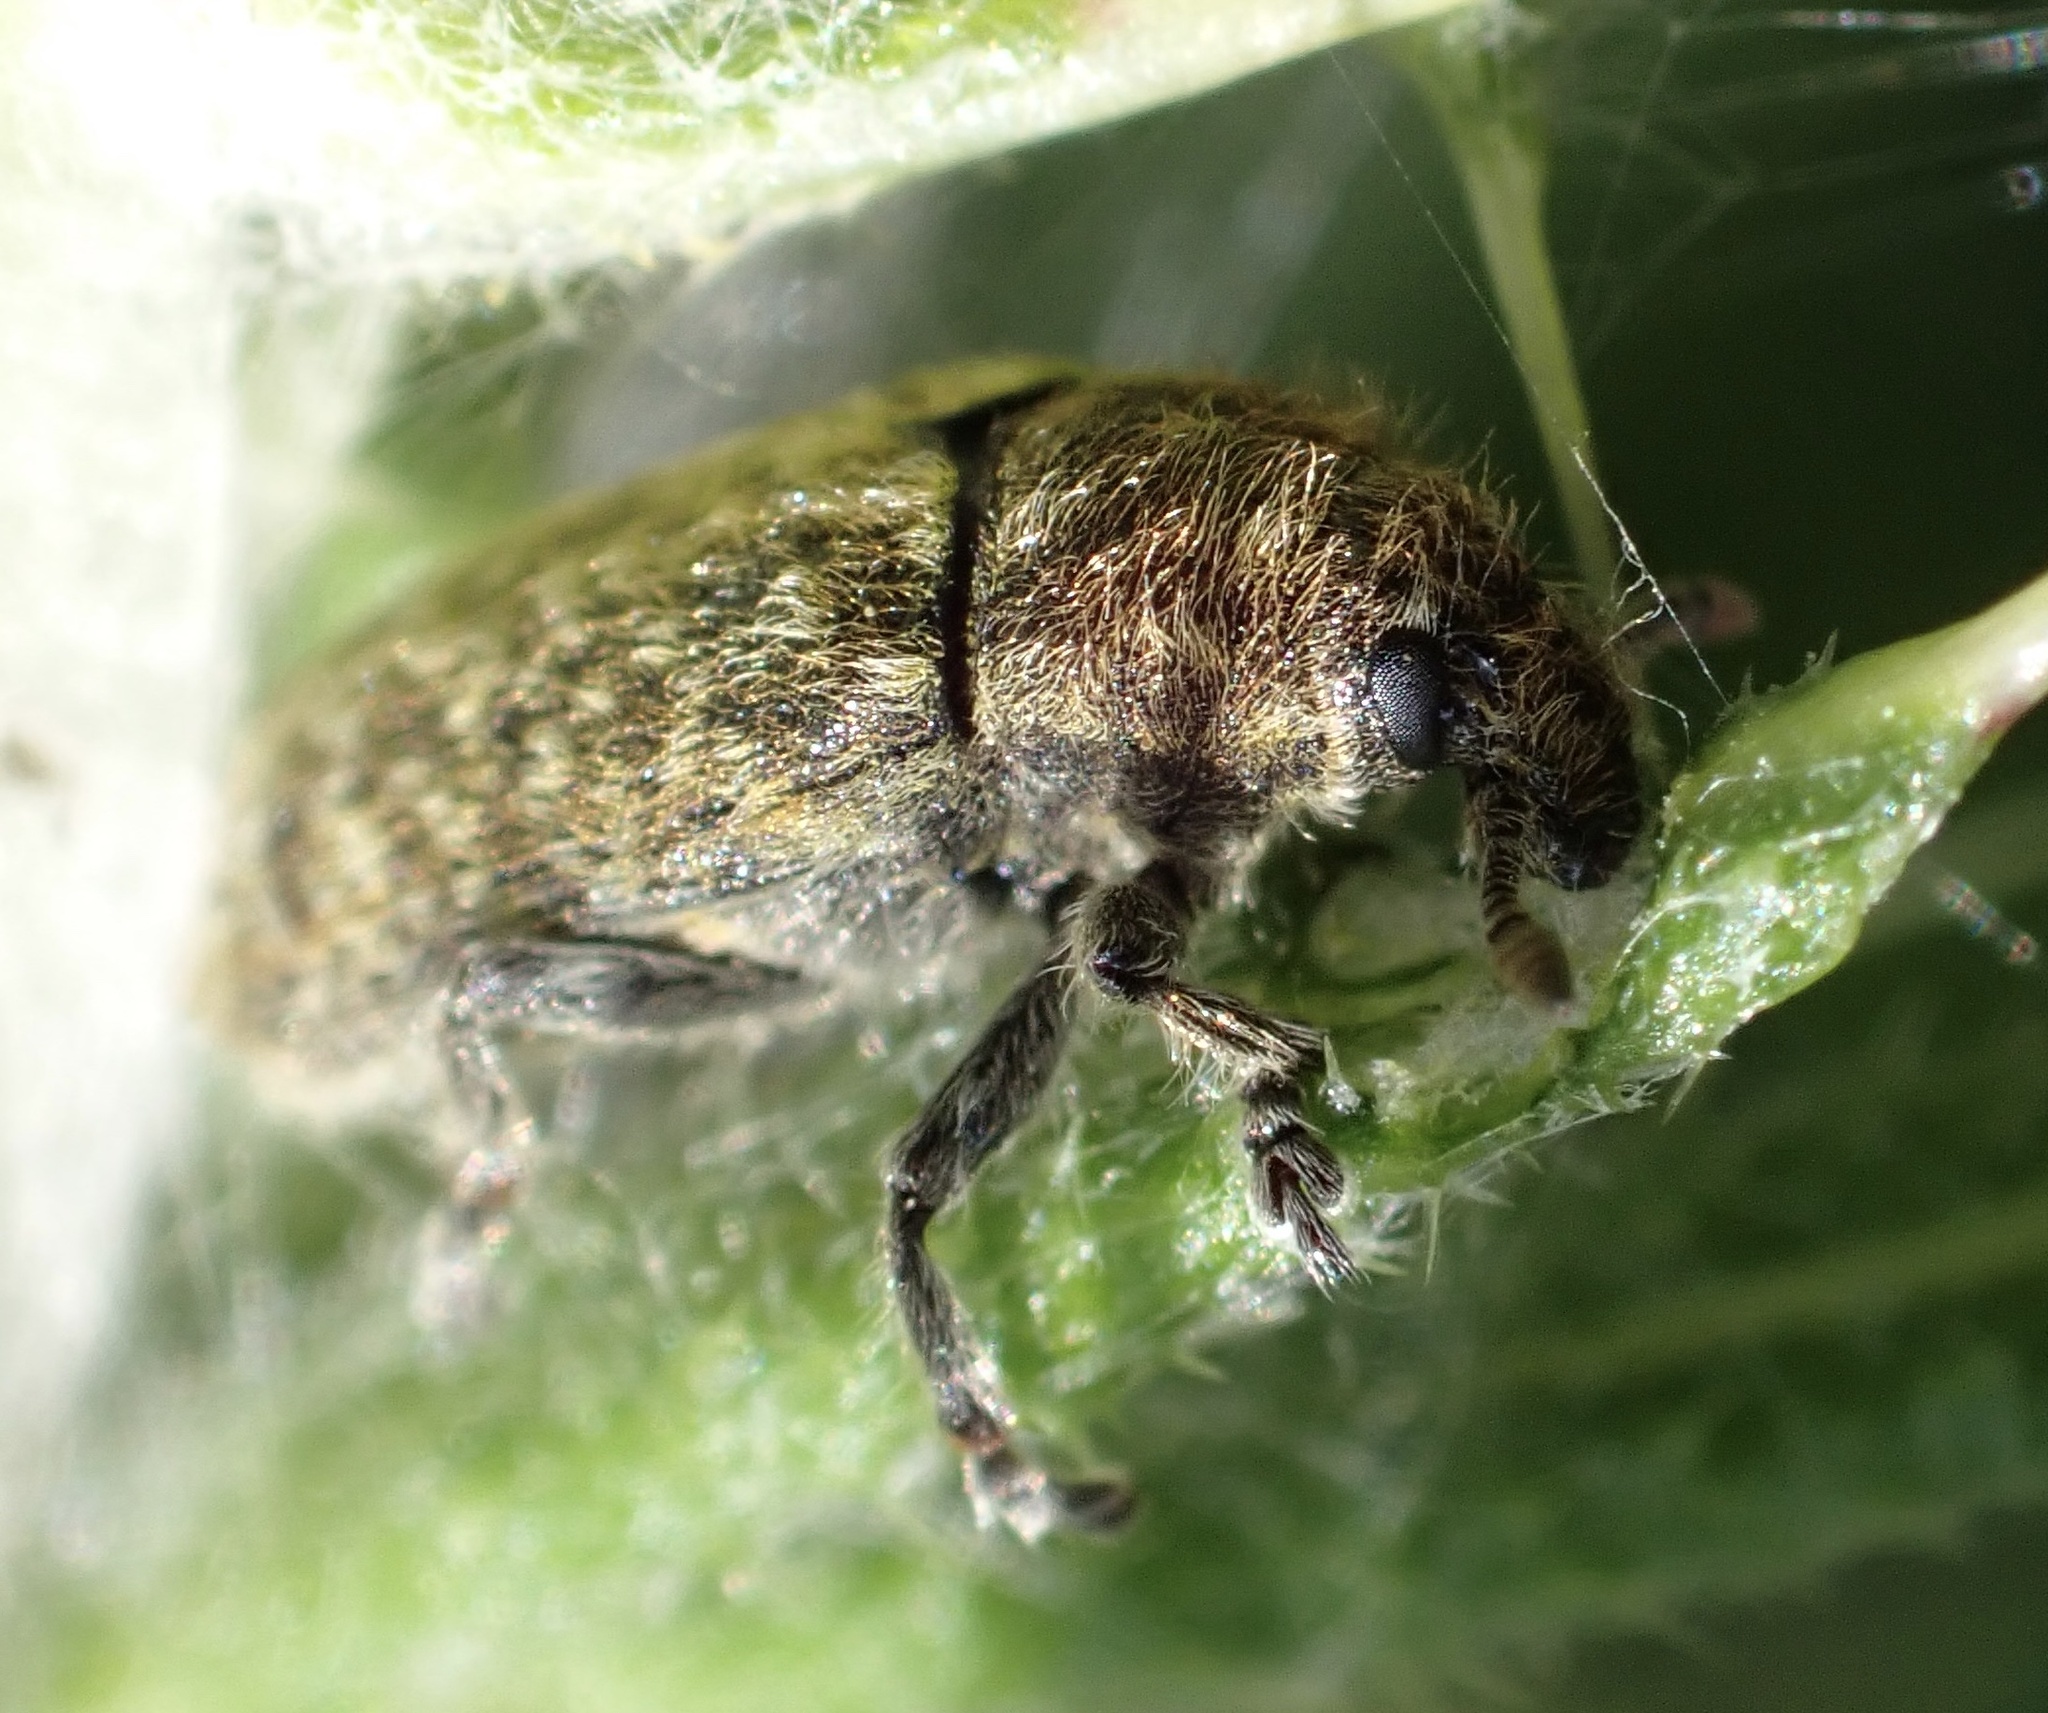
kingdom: Animalia
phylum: Arthropoda
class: Insecta
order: Coleoptera
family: Curculionidae
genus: Rhinocyllus
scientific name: Rhinocyllus conicus
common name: Weevil
